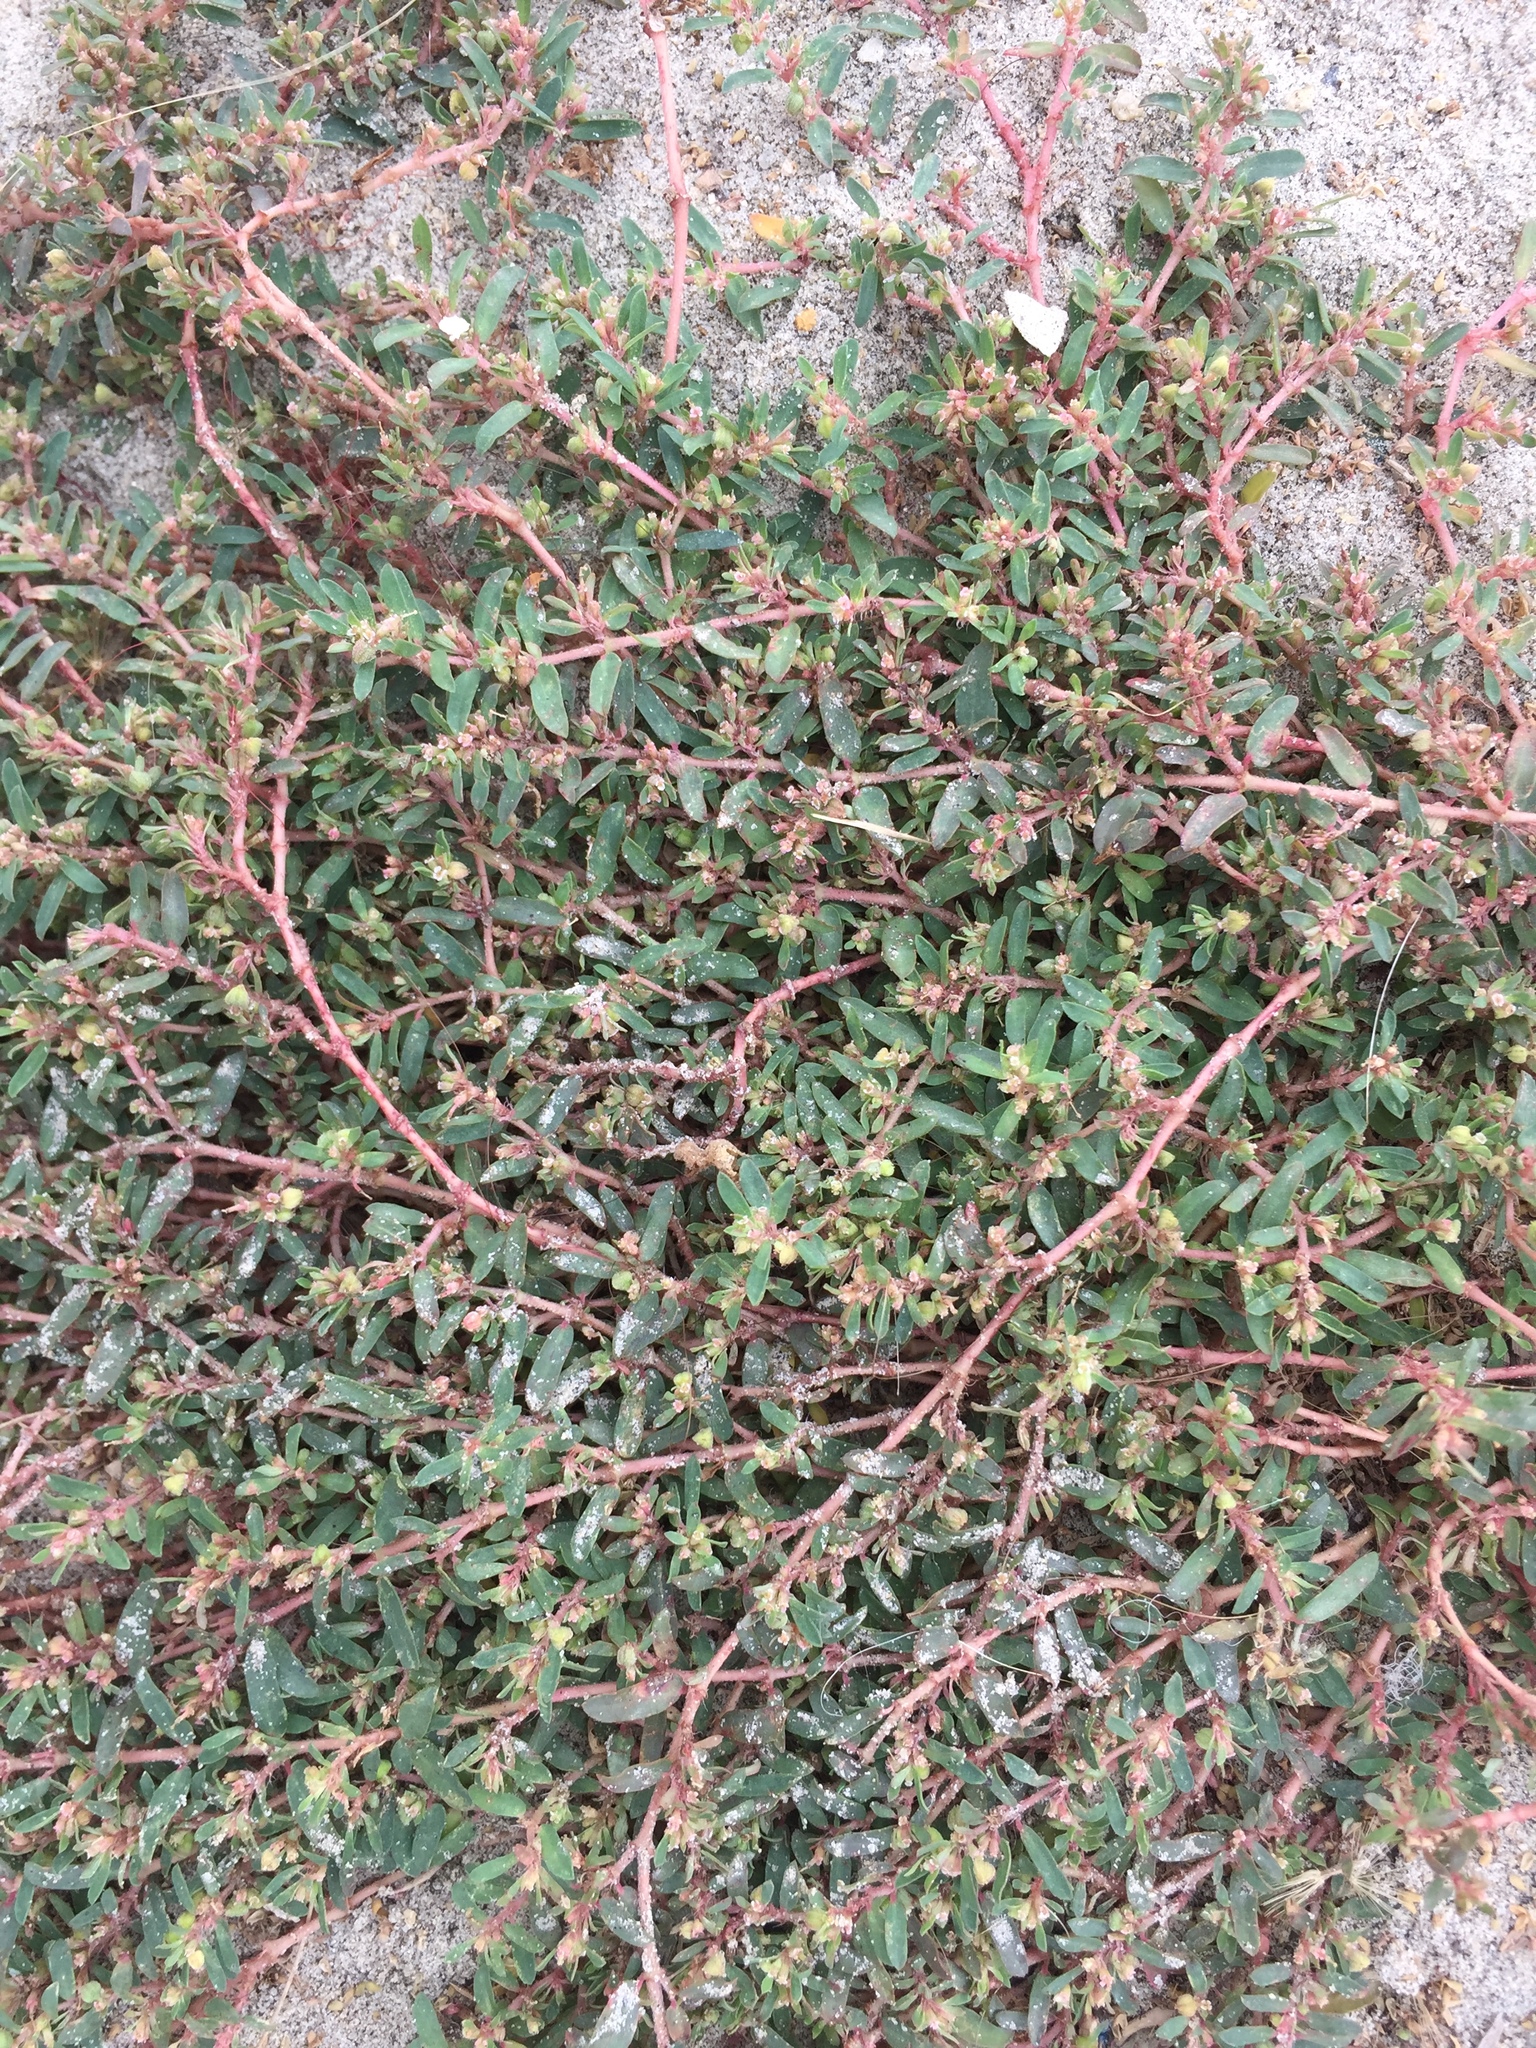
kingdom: Plantae
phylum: Tracheophyta
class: Magnoliopsida
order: Malpighiales
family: Euphorbiaceae
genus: Euphorbia
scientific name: Euphorbia maculata
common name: Spotted spurge
